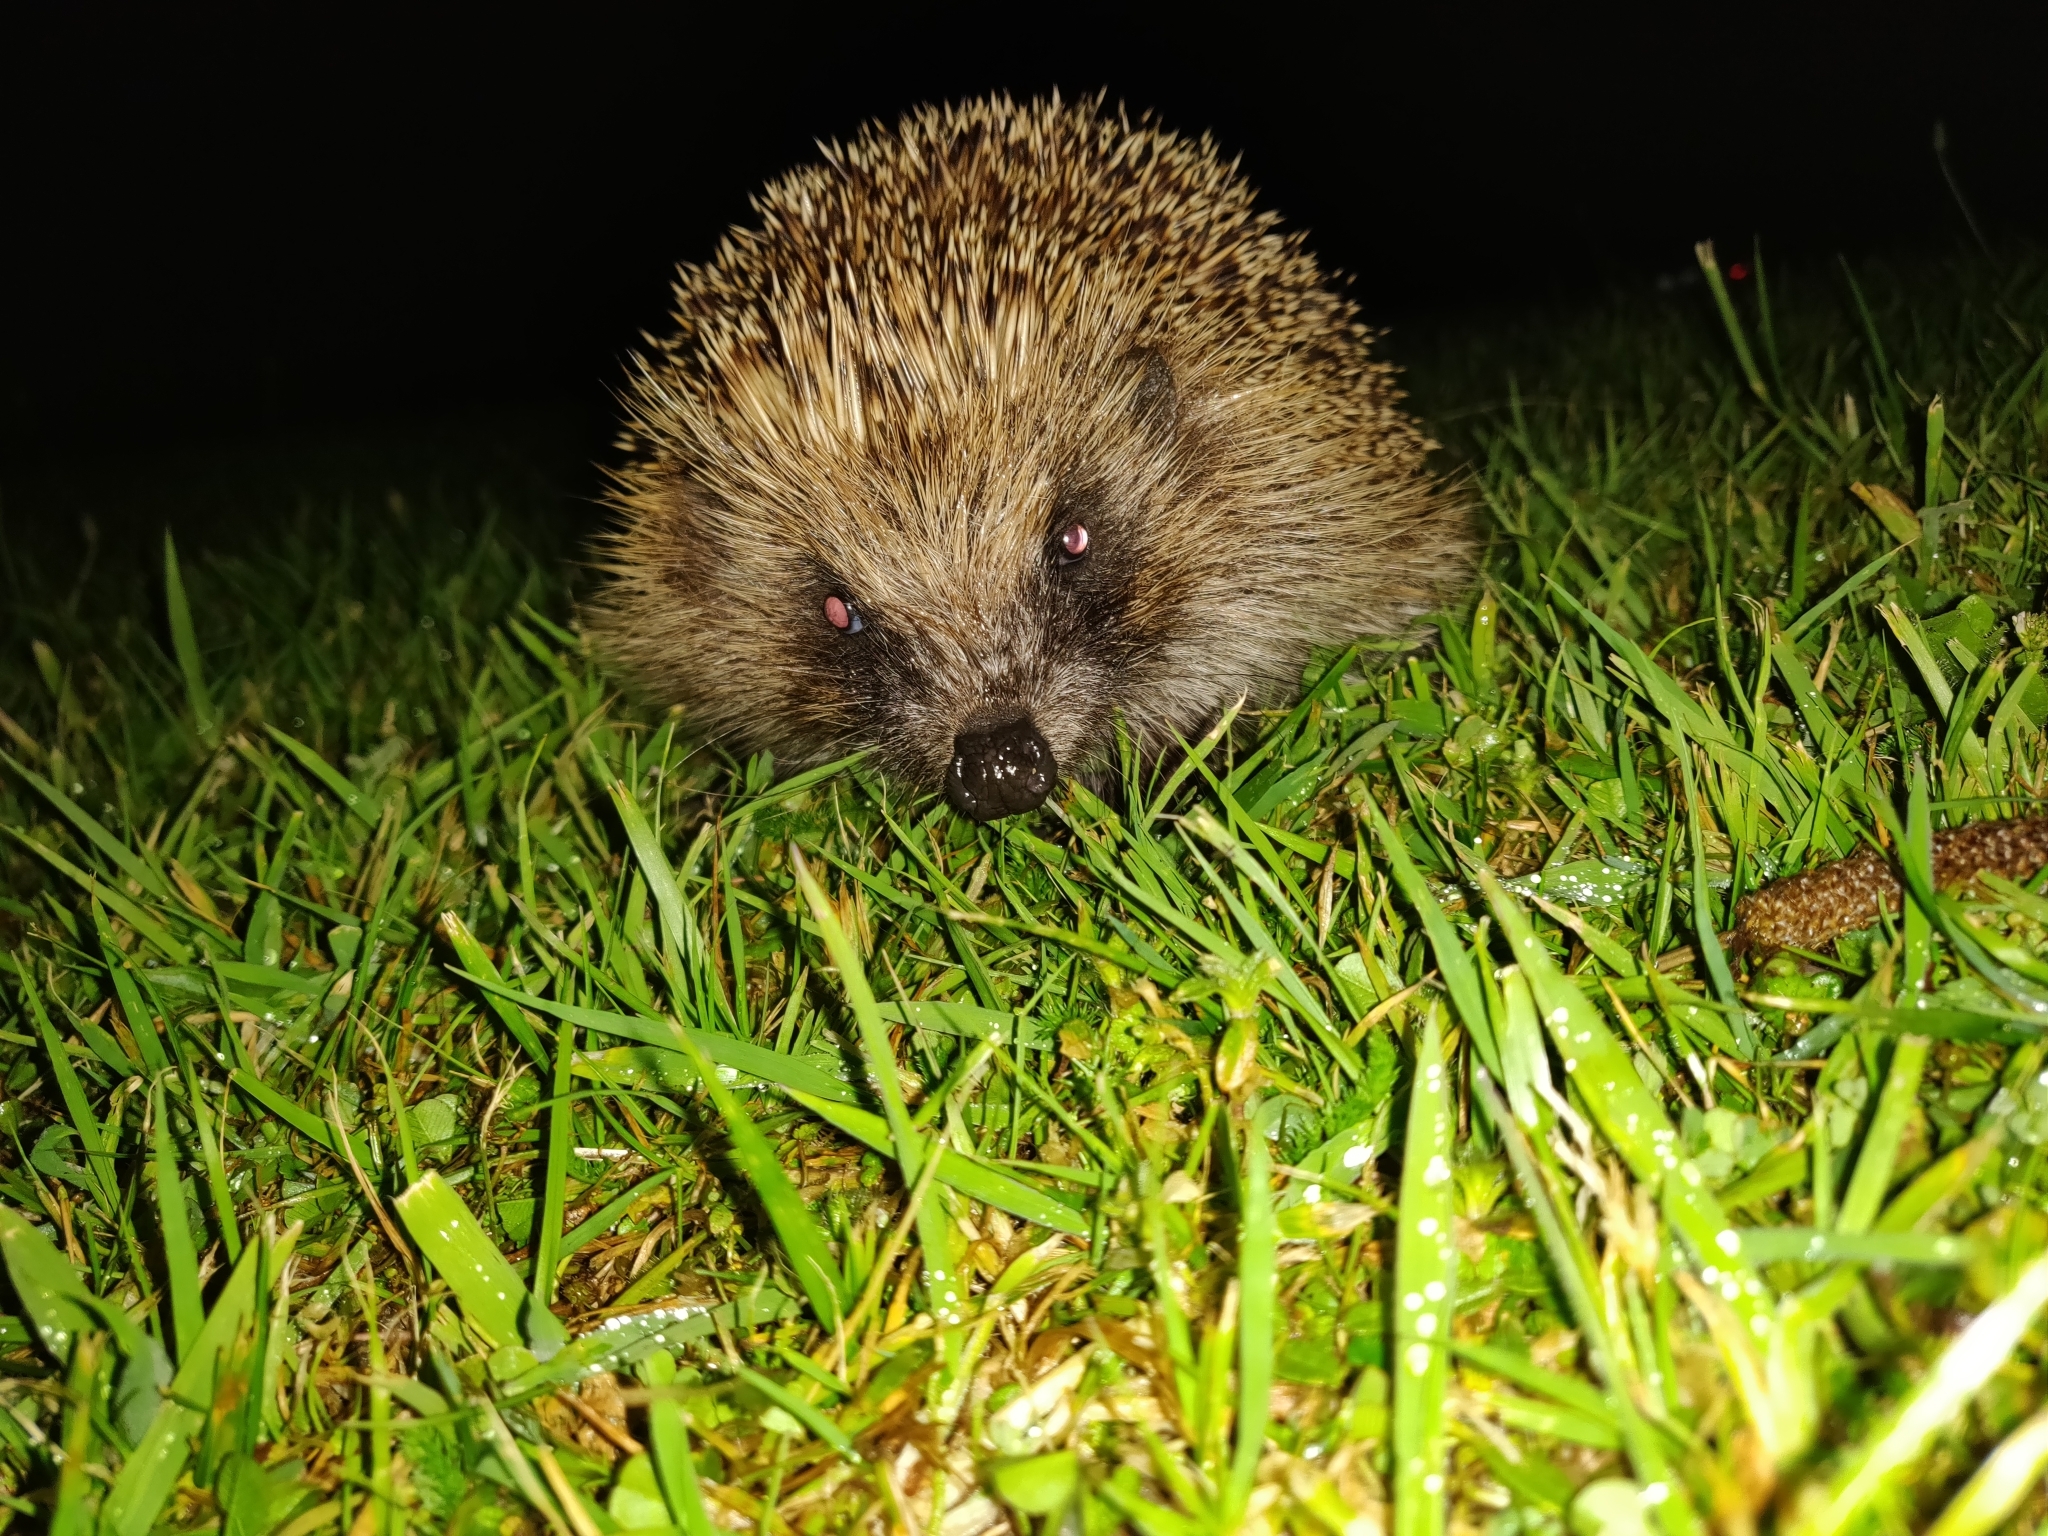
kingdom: Animalia
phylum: Chordata
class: Mammalia
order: Erinaceomorpha
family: Erinaceidae
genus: Erinaceus
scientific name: Erinaceus europaeus
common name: West european hedgehog
